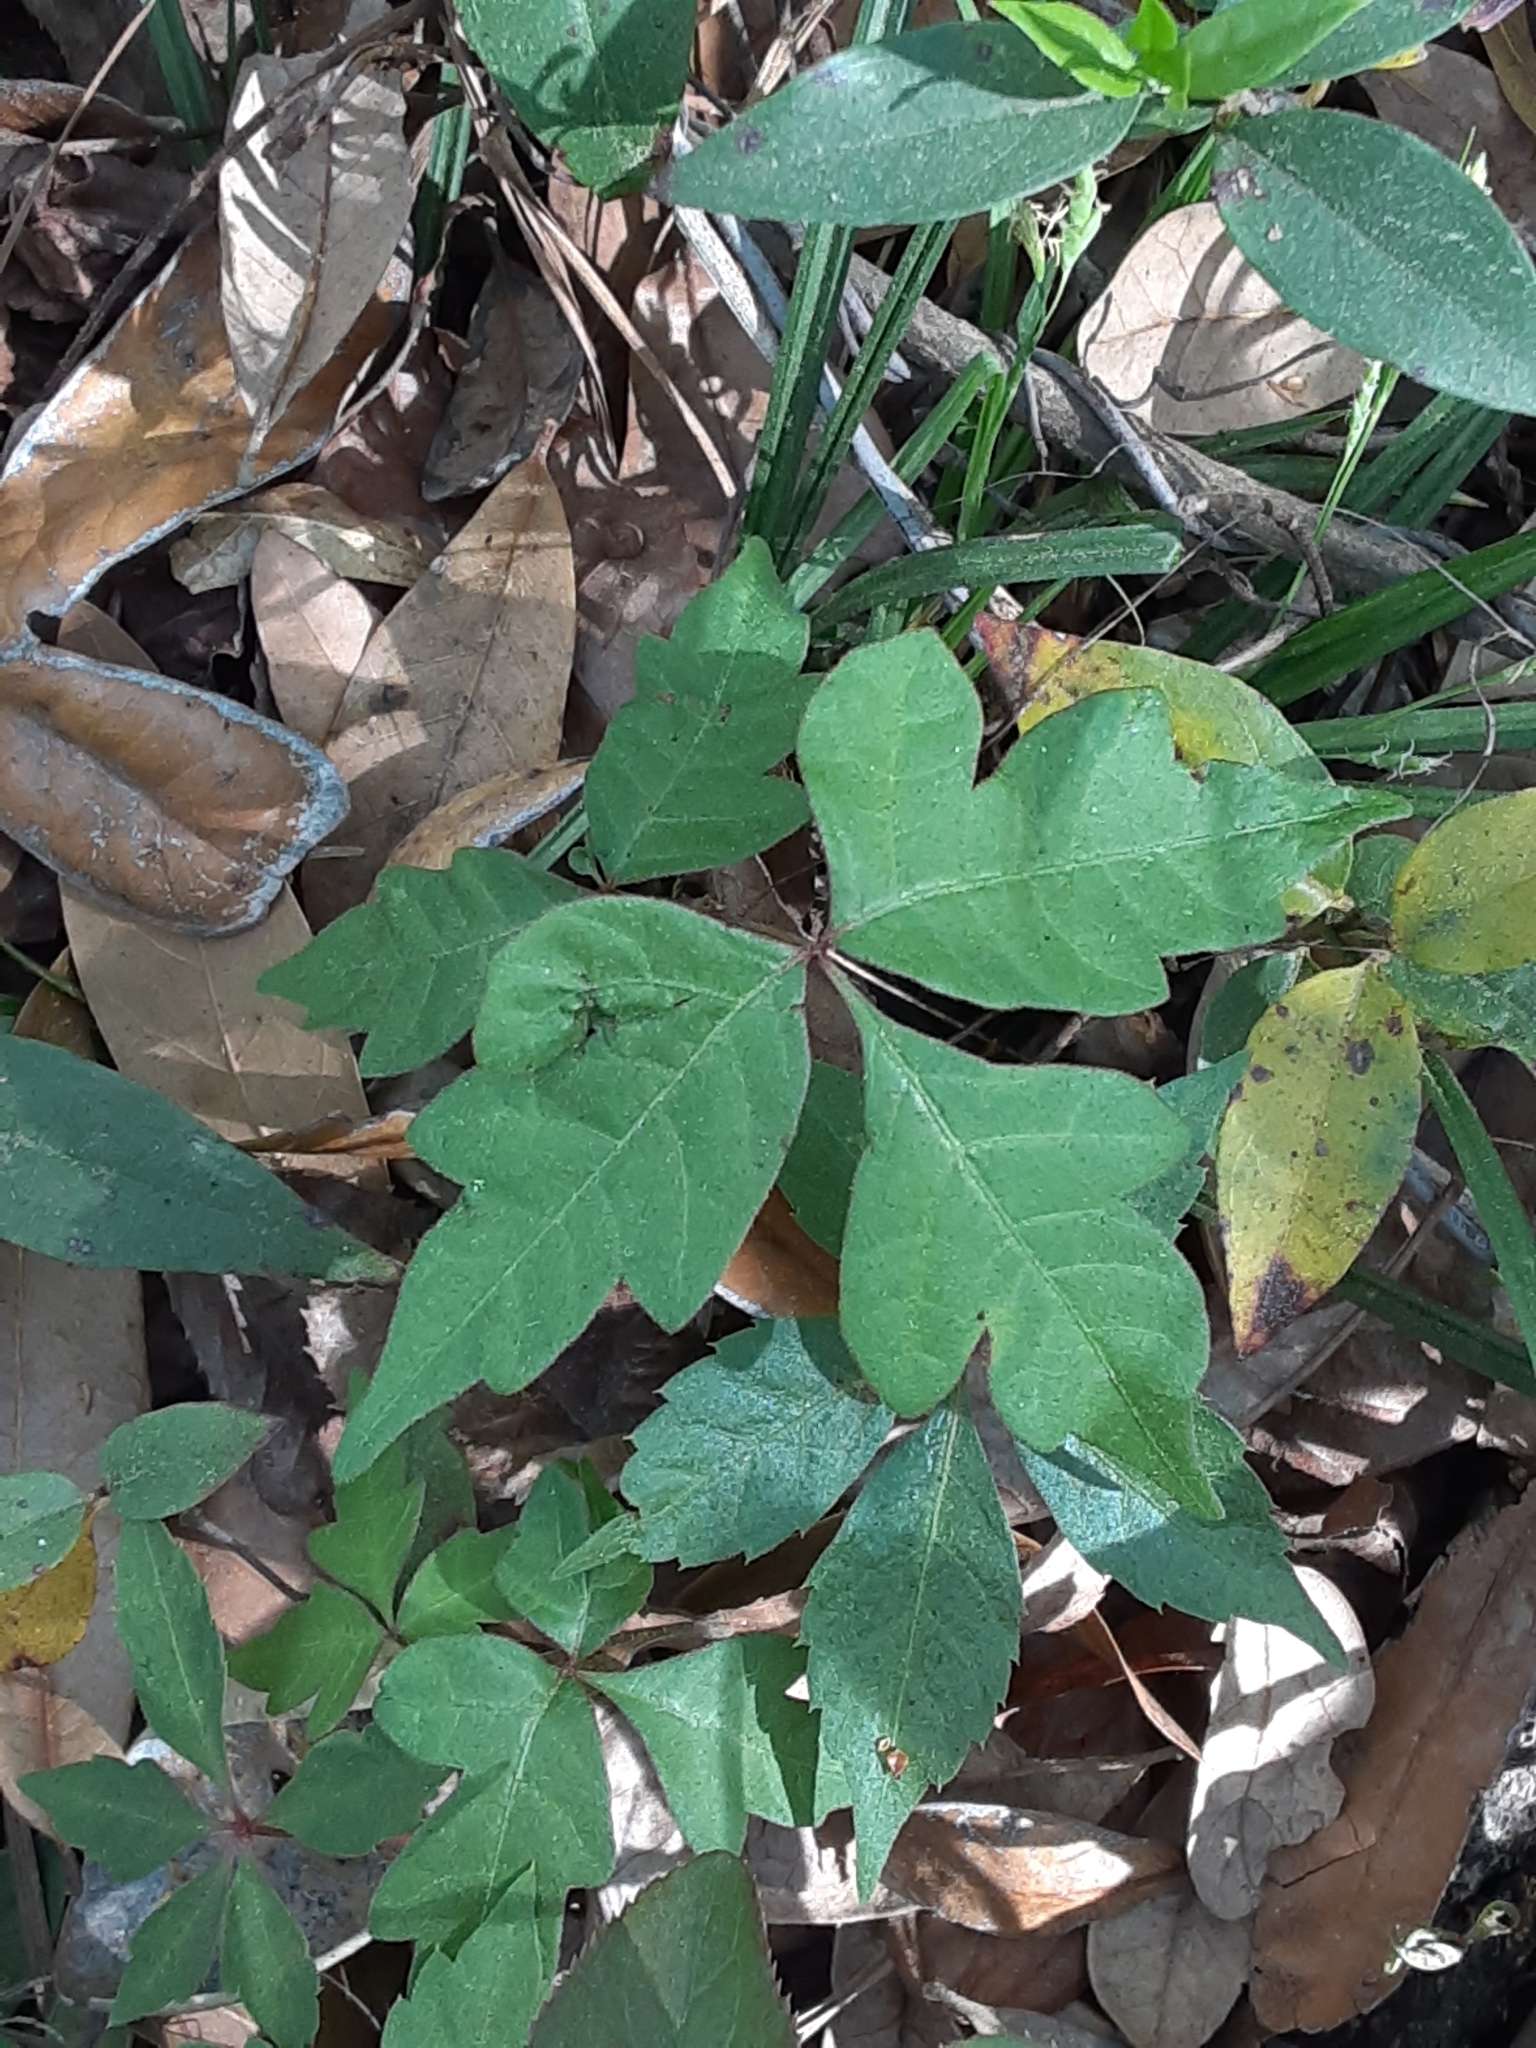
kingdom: Plantae
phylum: Tracheophyta
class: Magnoliopsida
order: Sapindales
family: Anacardiaceae
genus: Toxicodendron
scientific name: Toxicodendron radicans
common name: Poison ivy
